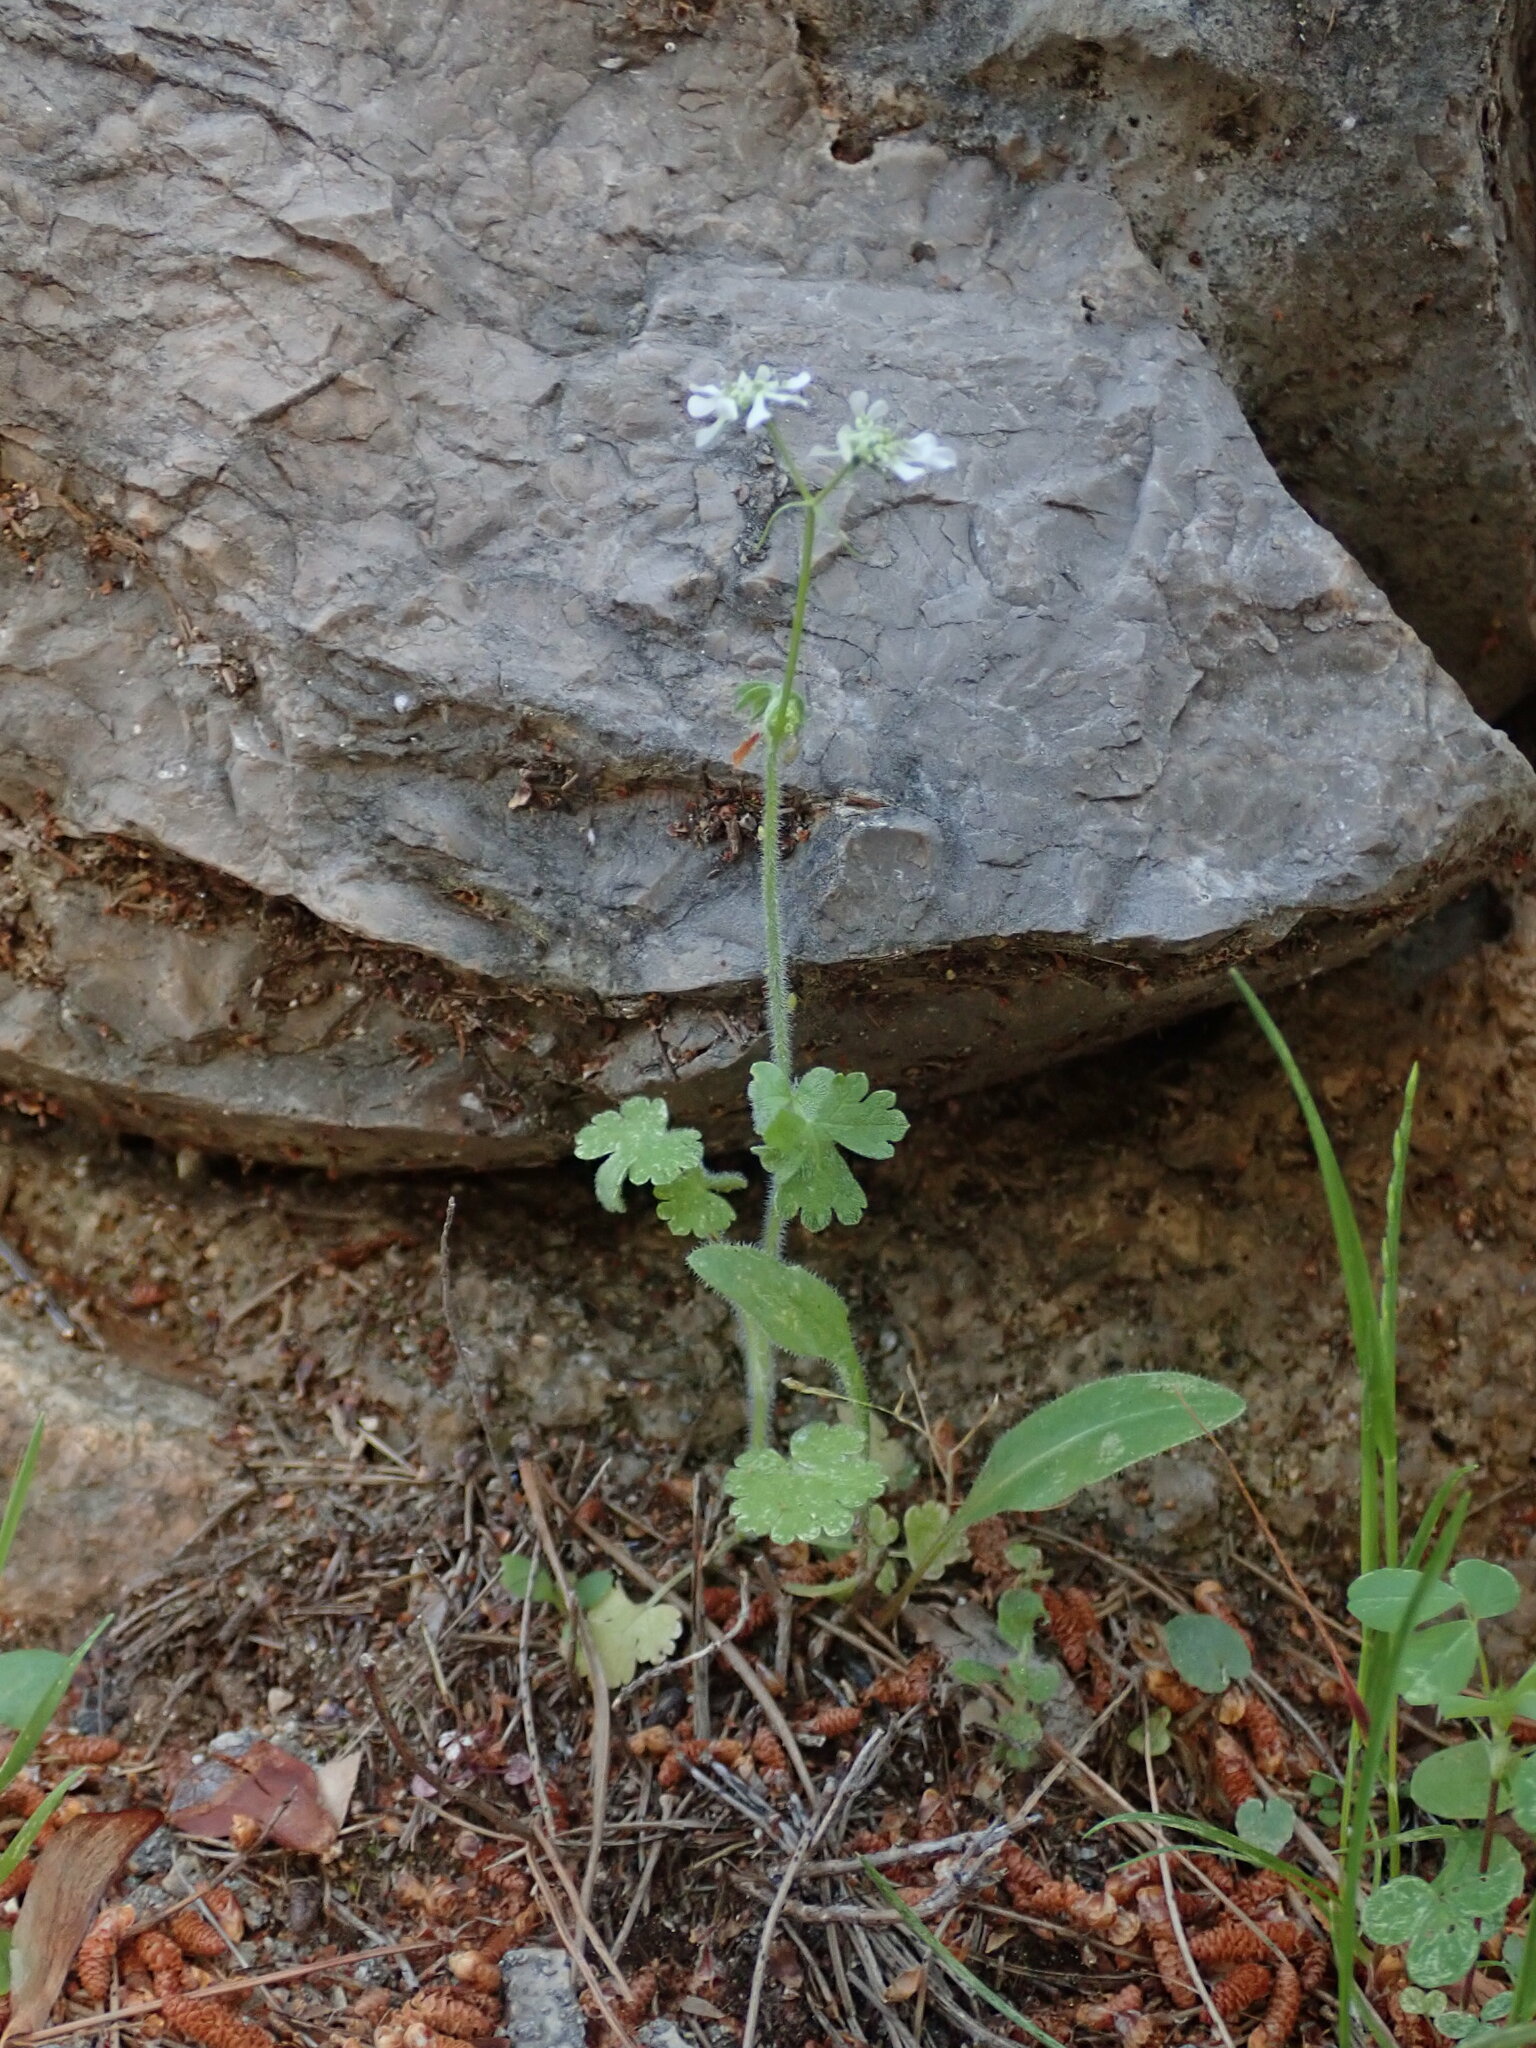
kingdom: Plantae
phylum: Tracheophyta
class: Magnoliopsida
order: Apiales
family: Apiaceae
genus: Tordylium
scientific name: Tordylium apulum
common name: Mediterranean hartwort
